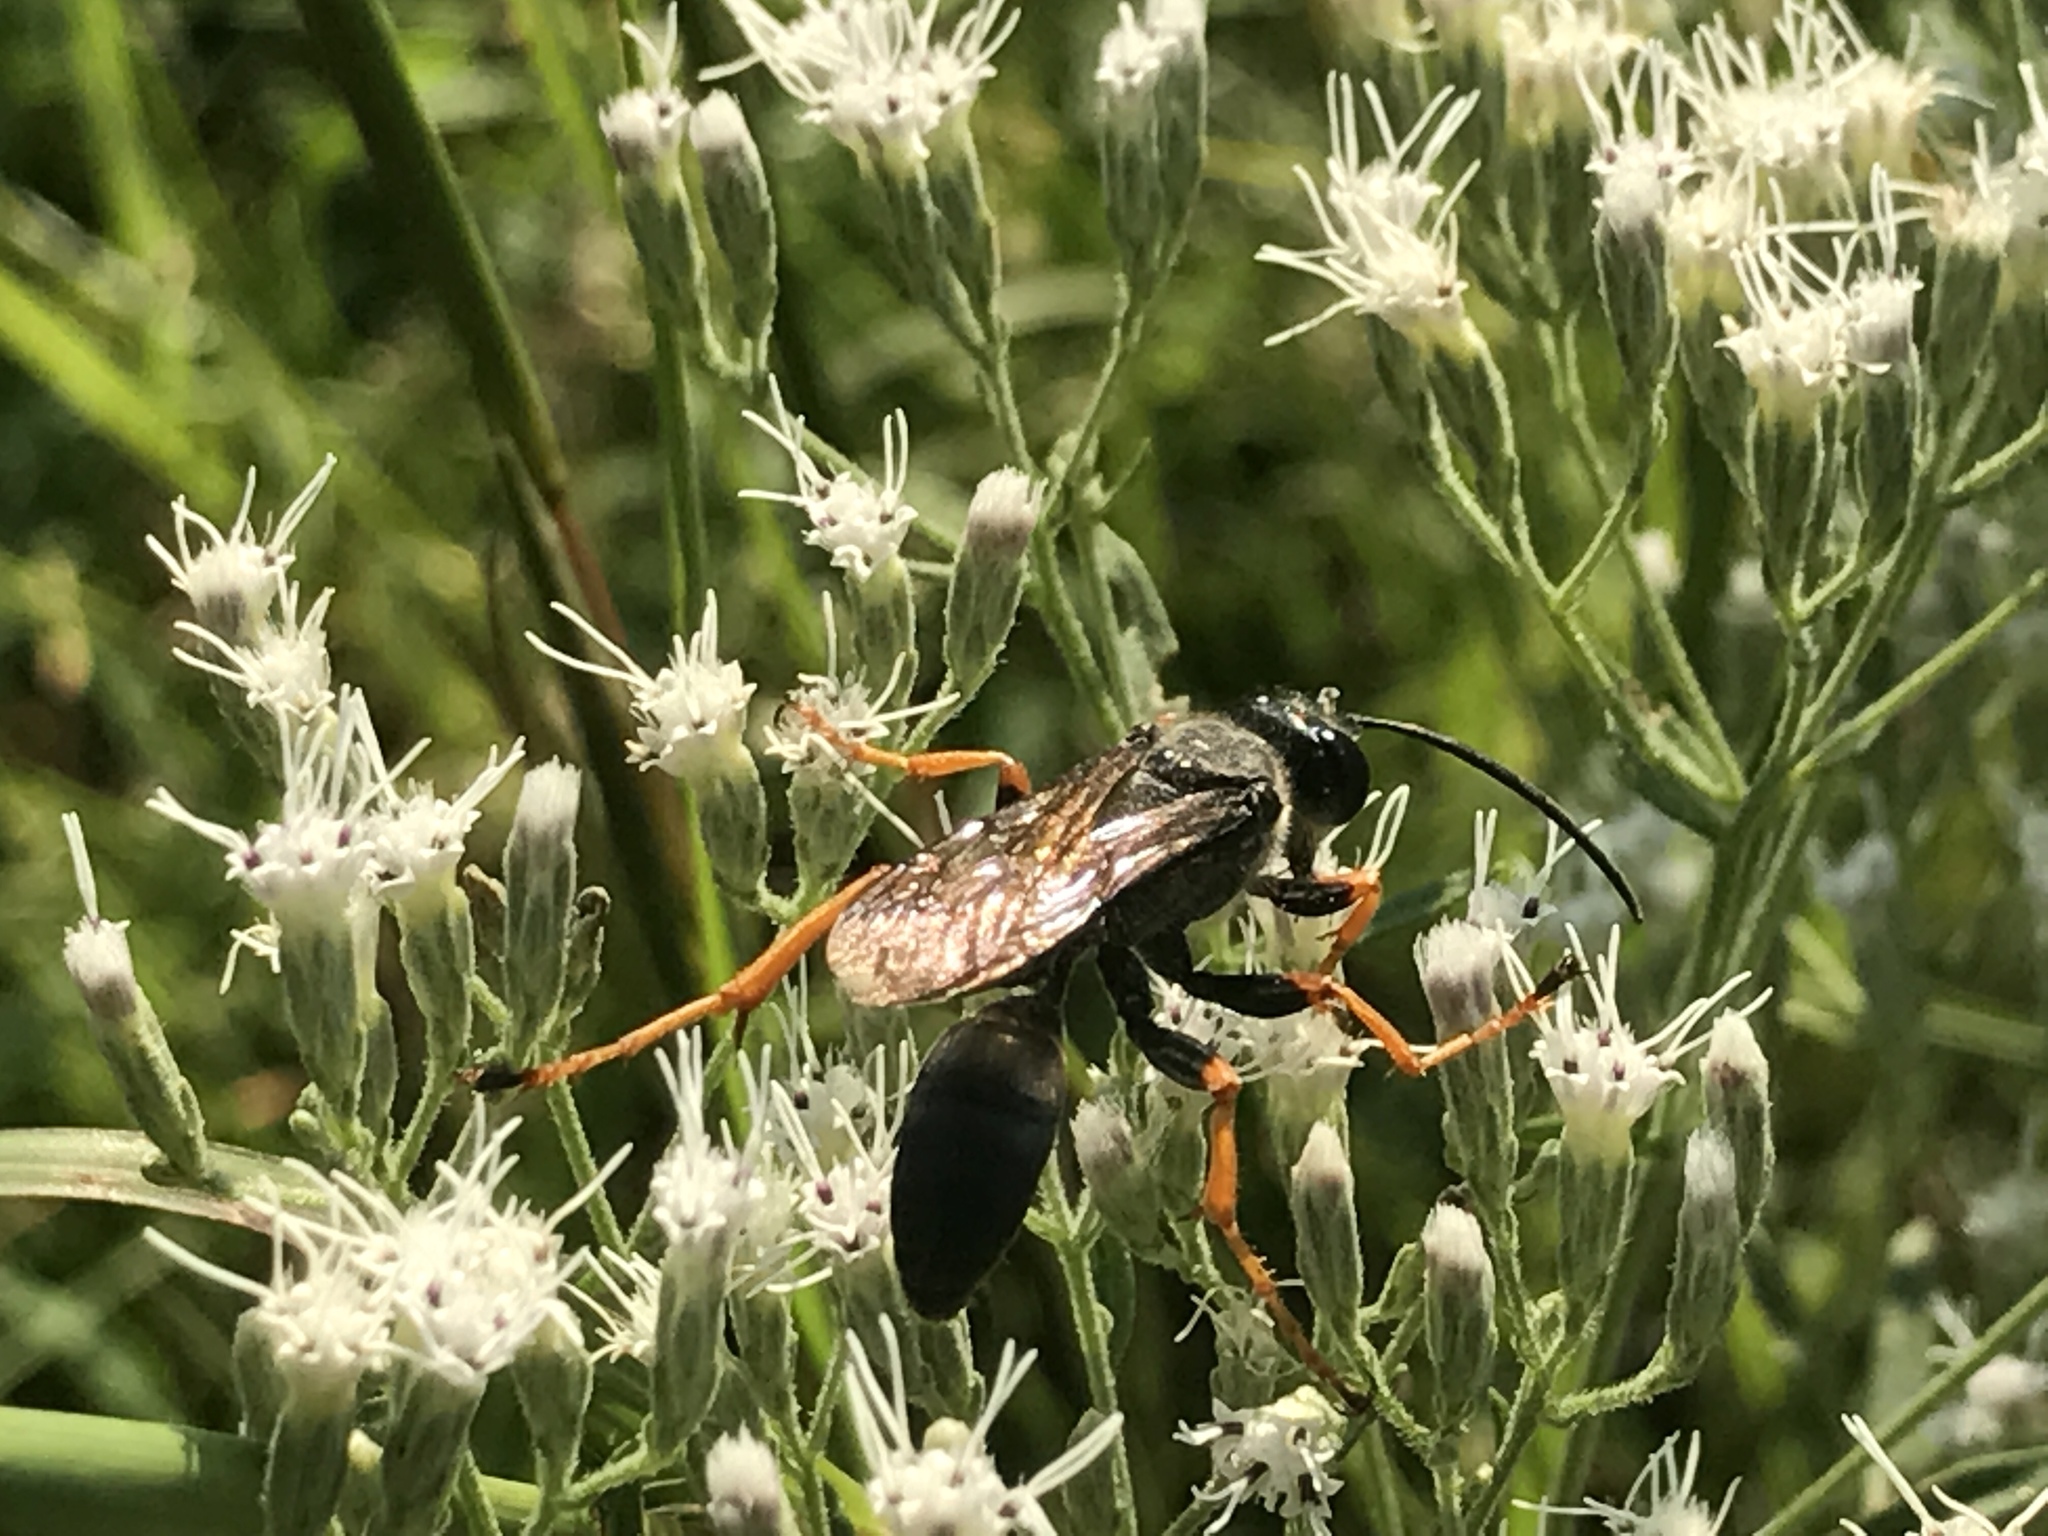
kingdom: Animalia
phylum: Arthropoda
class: Insecta
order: Hymenoptera
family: Sphecidae
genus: Sphex
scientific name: Sphex nudus
